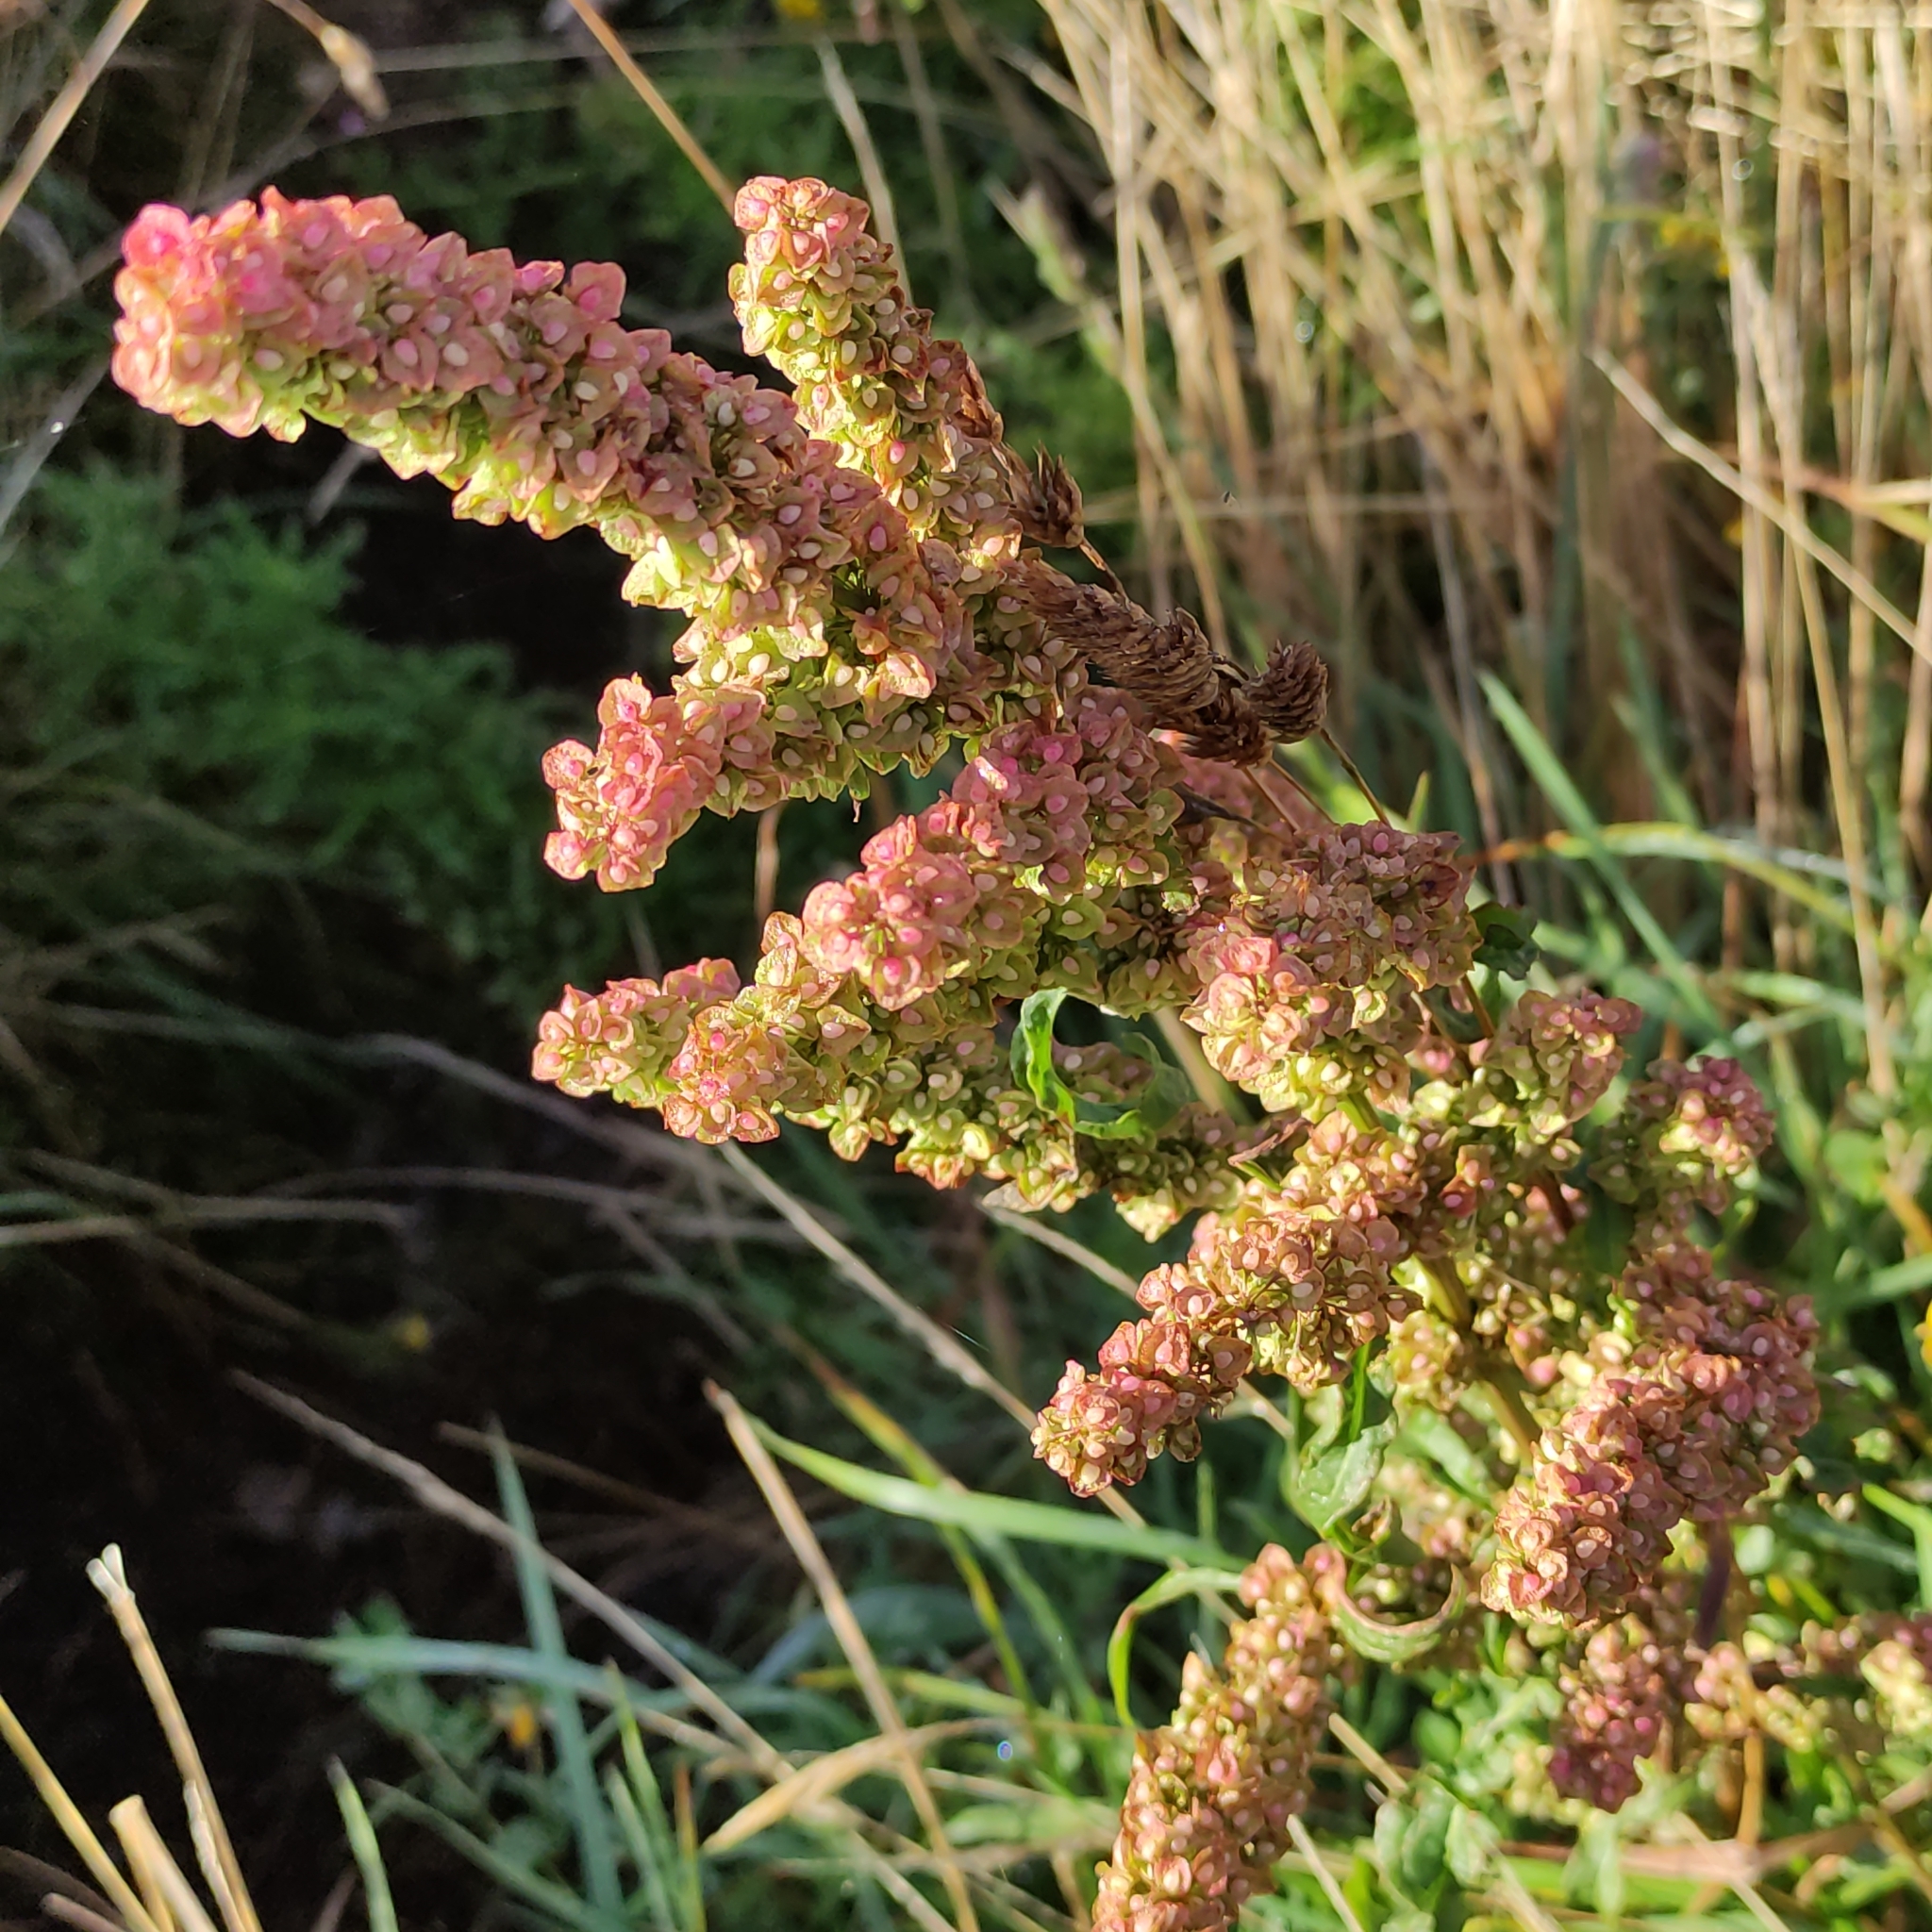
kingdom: Plantae
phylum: Tracheophyta
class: Magnoliopsida
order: Caryophyllales
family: Polygonaceae
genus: Rumex
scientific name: Rumex crispus
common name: Curled dock
